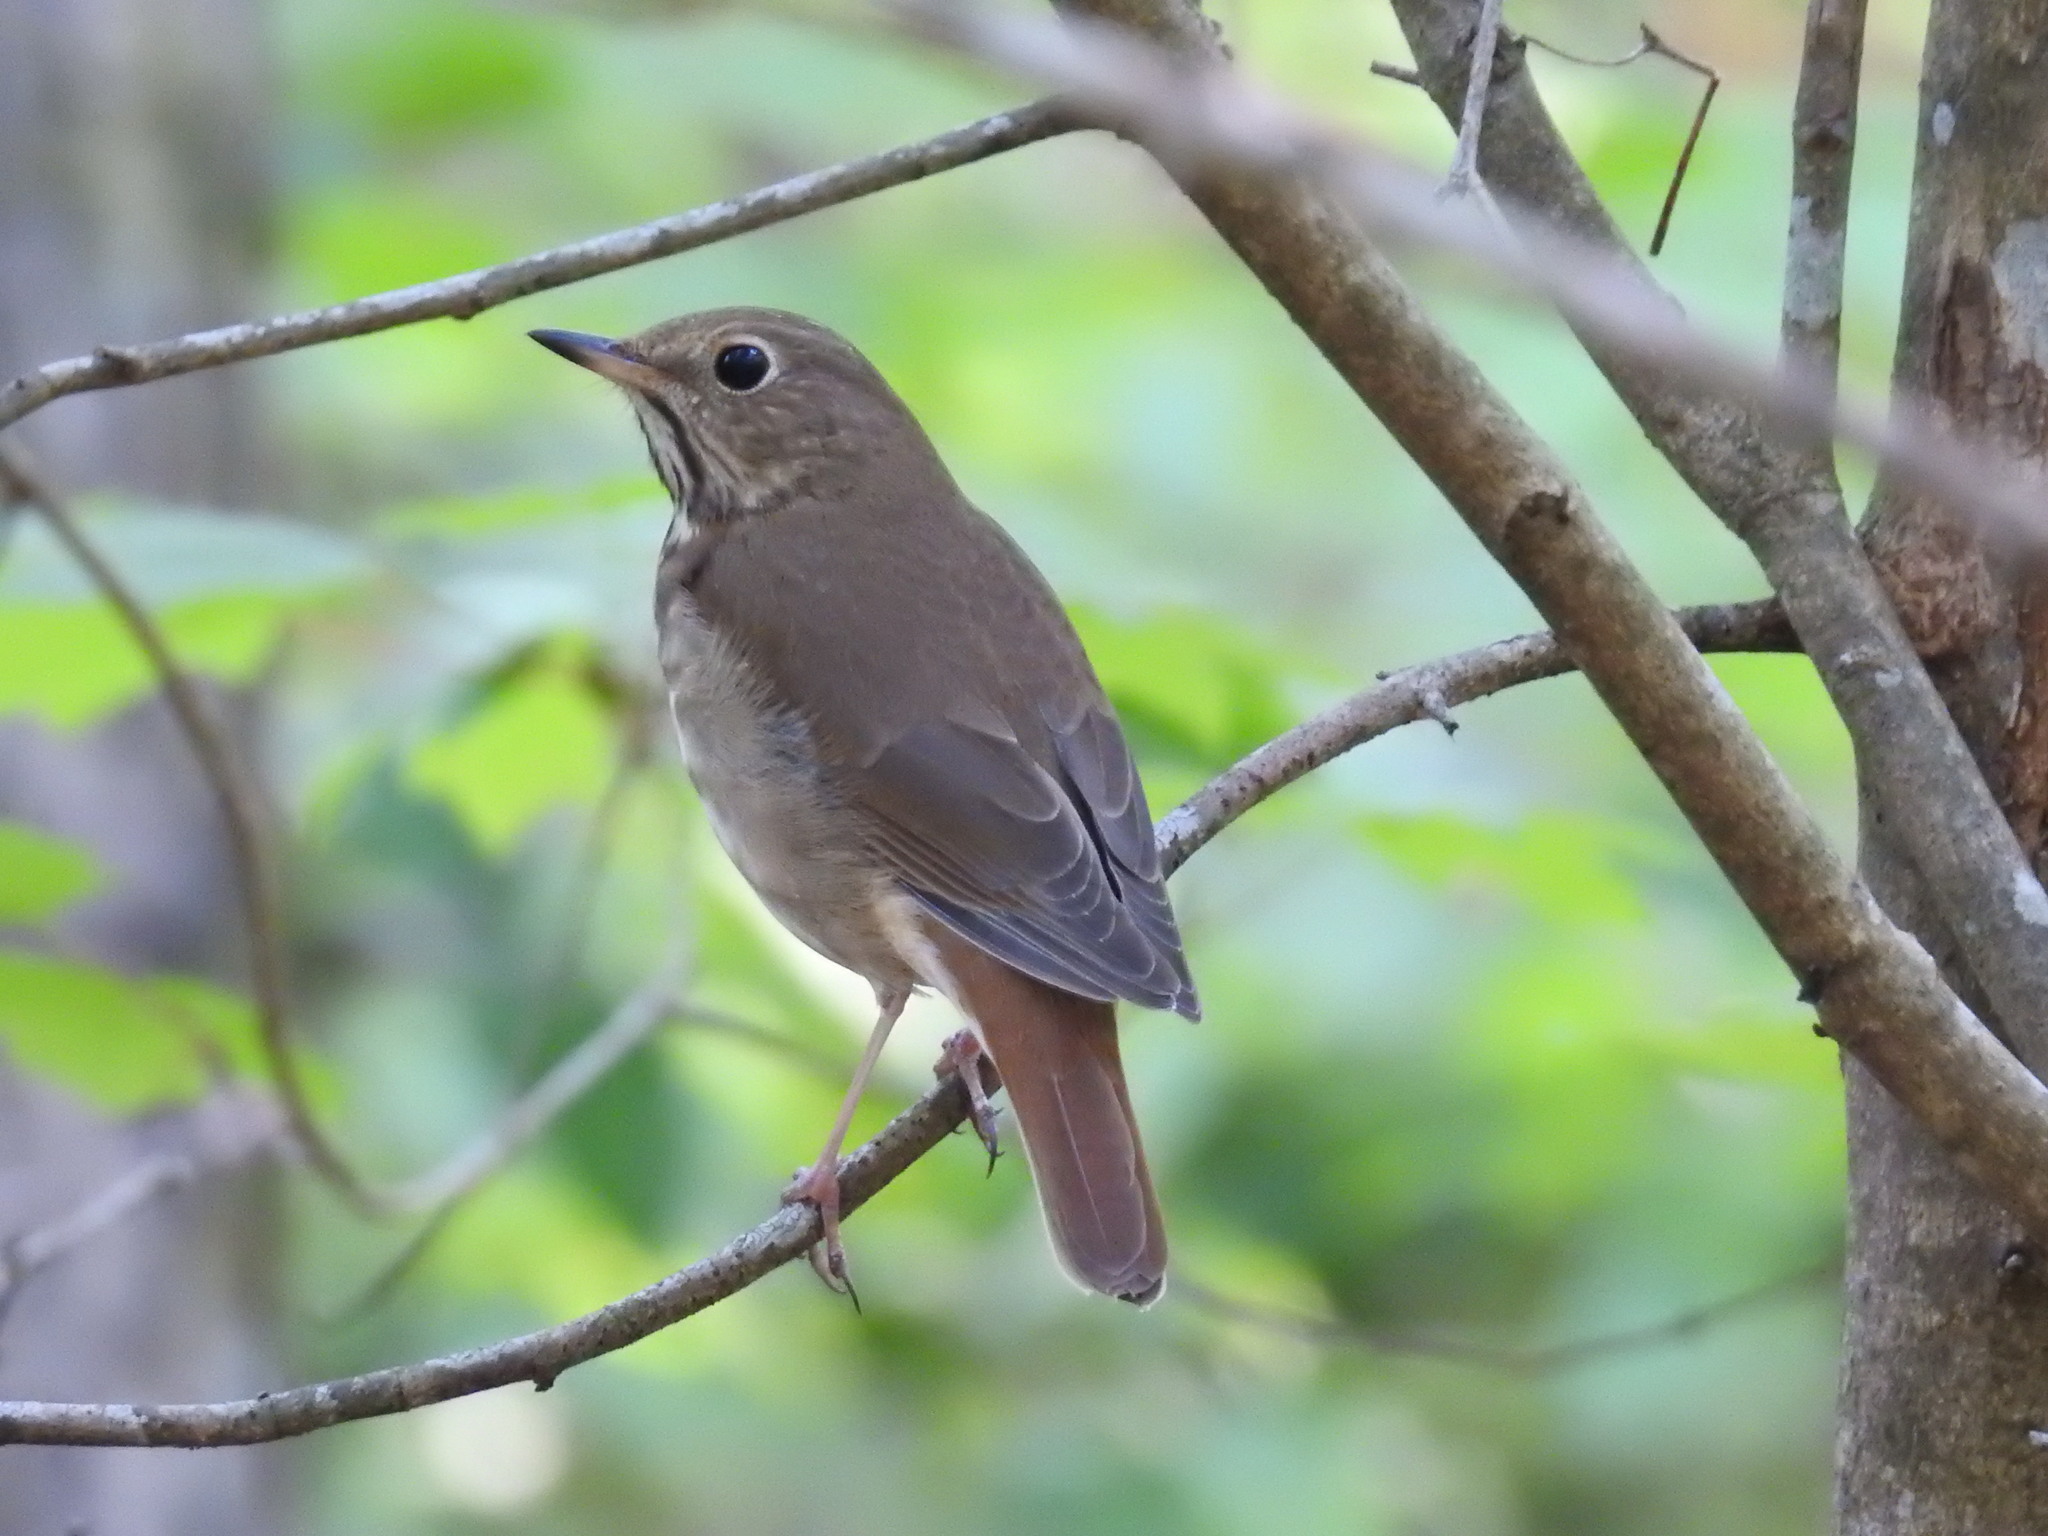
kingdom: Animalia
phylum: Chordata
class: Aves
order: Passeriformes
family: Turdidae
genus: Catharus
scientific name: Catharus guttatus
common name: Hermit thrush
